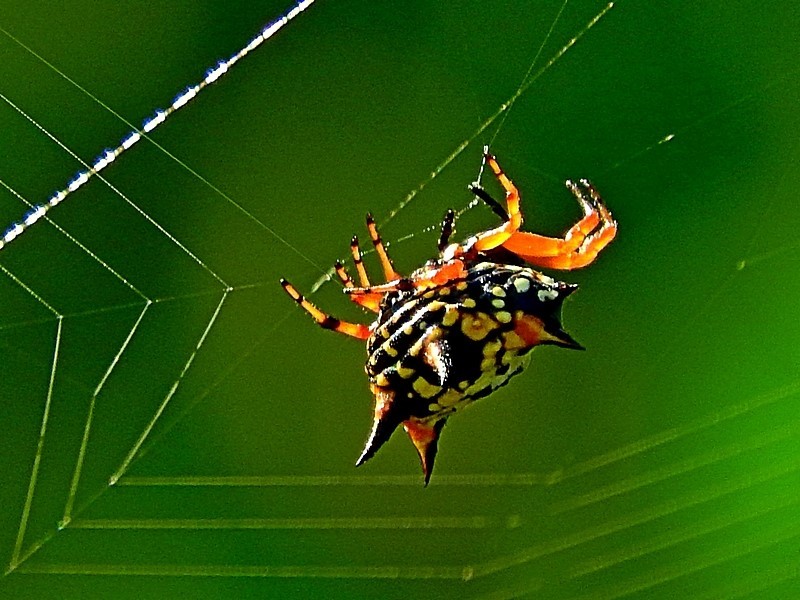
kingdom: Animalia
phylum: Arthropoda
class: Arachnida
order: Araneae
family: Araneidae
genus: Austracantha
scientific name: Austracantha minax
